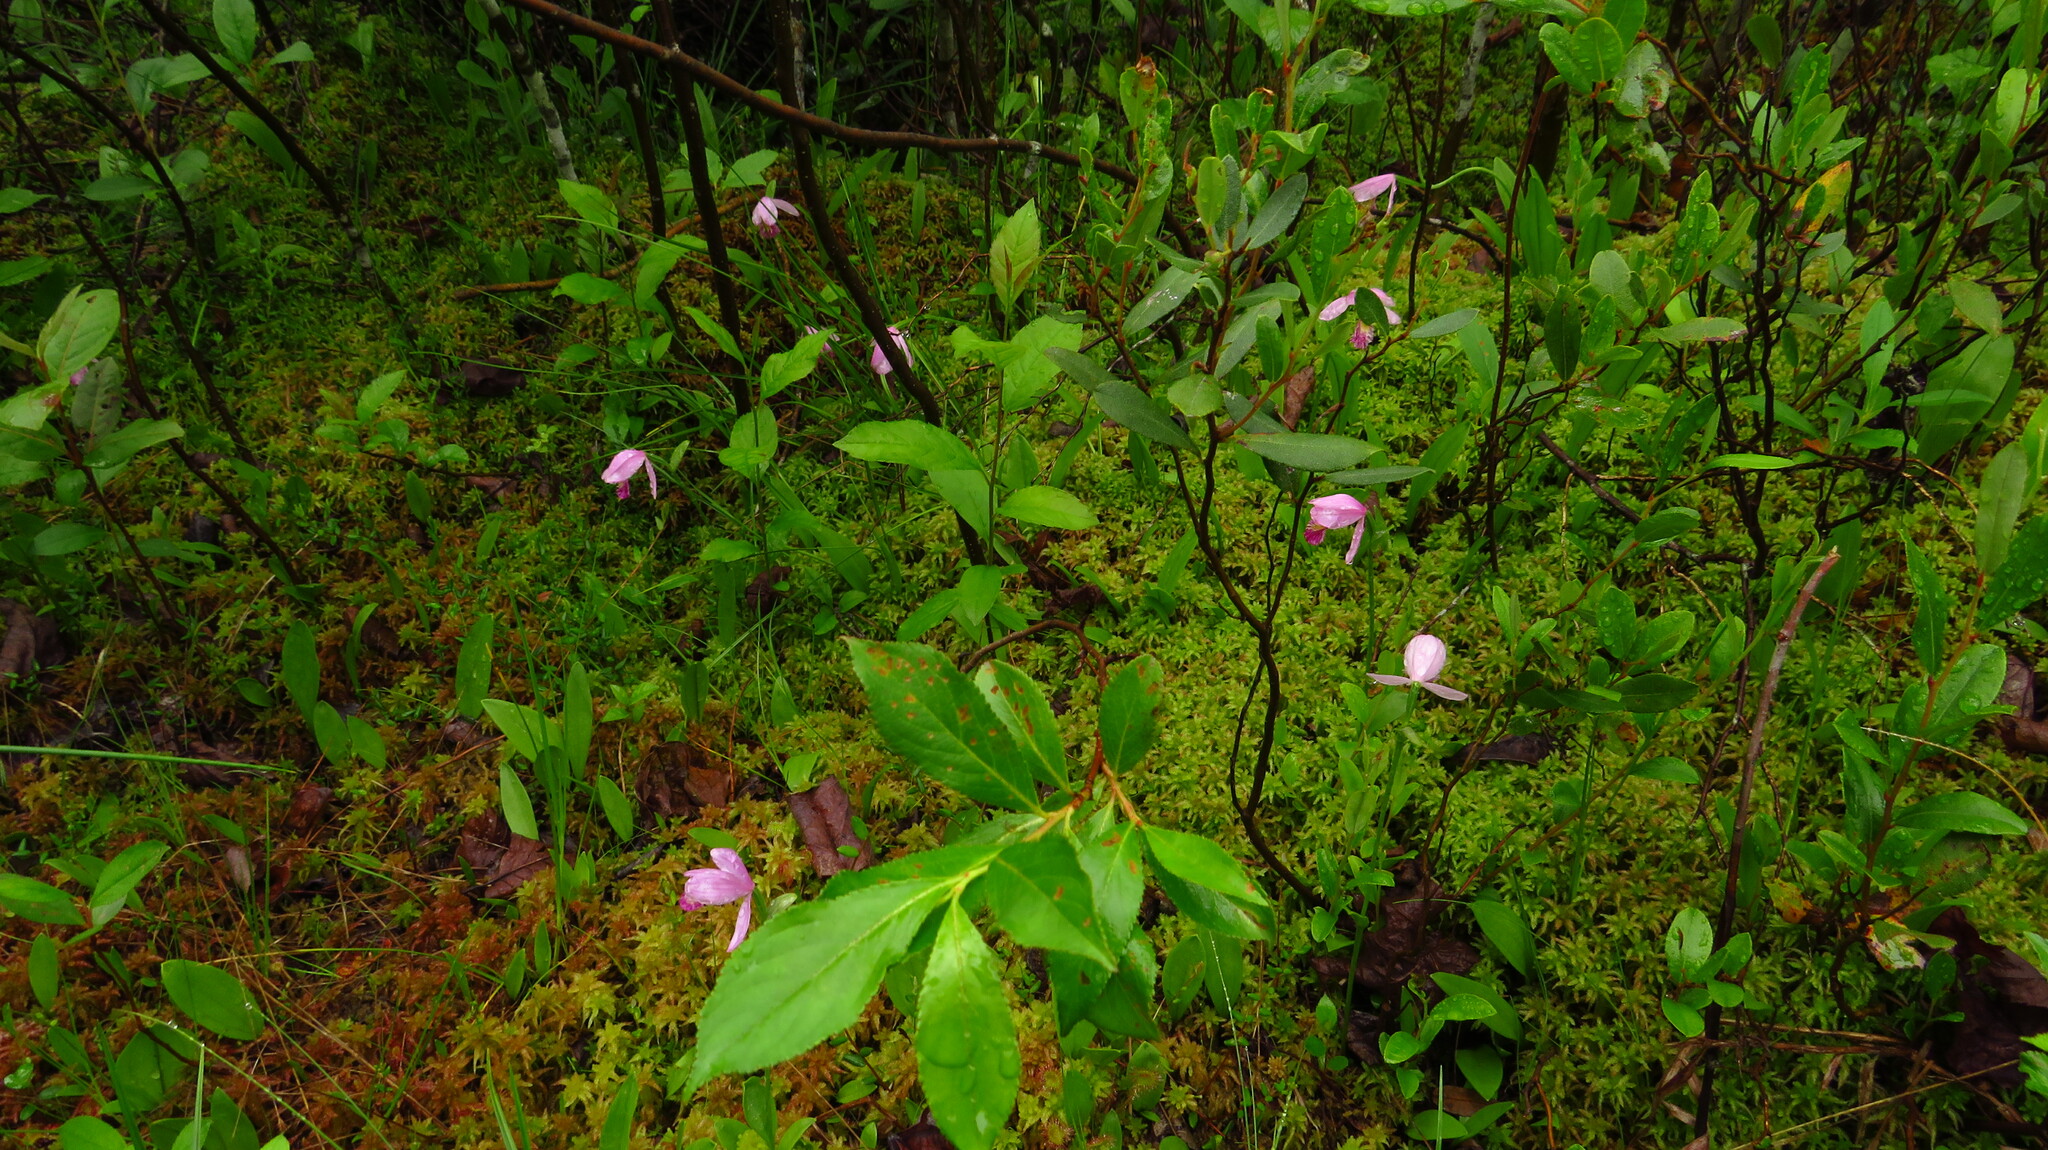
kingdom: Plantae
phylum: Tracheophyta
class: Liliopsida
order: Asparagales
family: Orchidaceae
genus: Pogonia
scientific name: Pogonia ophioglossoides
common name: Rose pogonia
